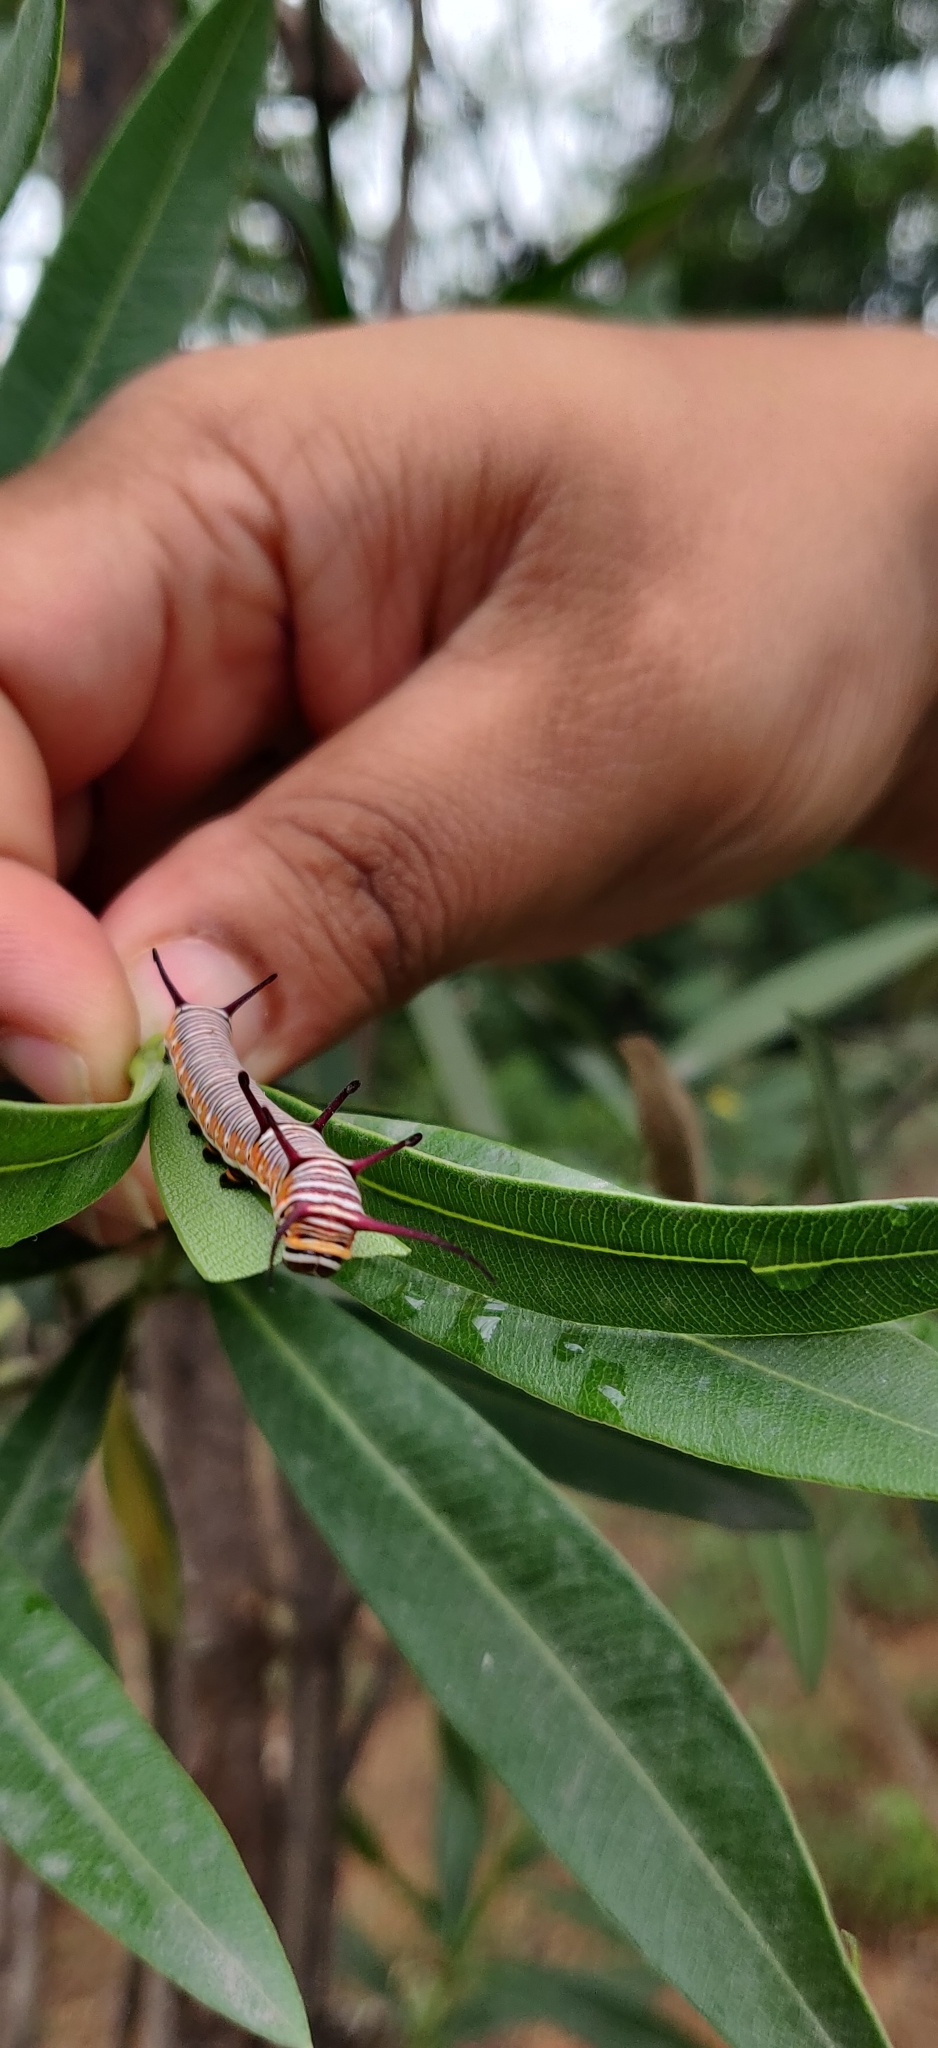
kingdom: Animalia
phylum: Arthropoda
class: Insecta
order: Lepidoptera
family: Nymphalidae
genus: Euploea
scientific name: Euploea core
